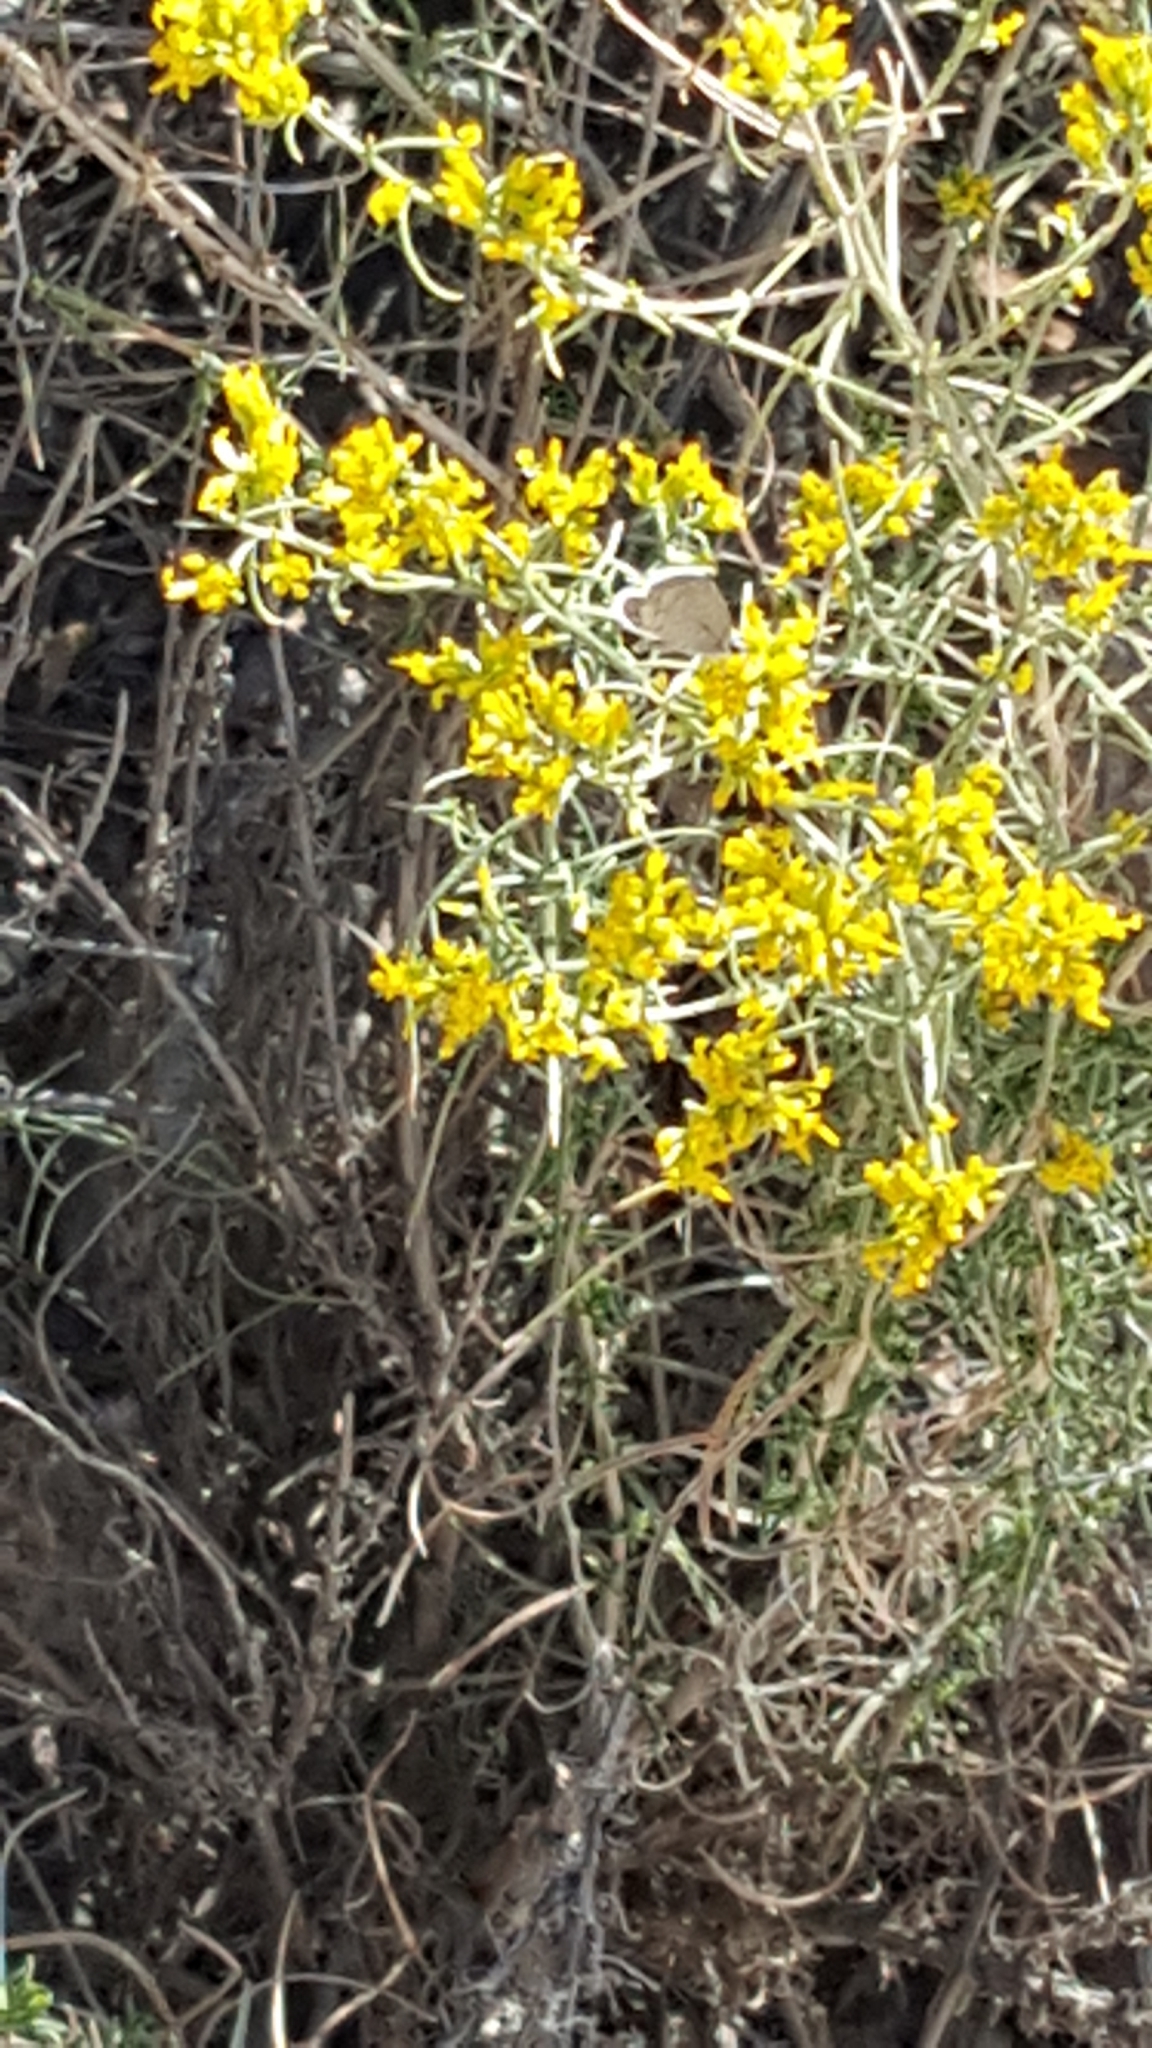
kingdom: Animalia
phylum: Arthropoda
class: Insecta
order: Lepidoptera
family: Lycaenidae
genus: Hemiargus
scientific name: Hemiargus ceraunus
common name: Ceraunus blue
